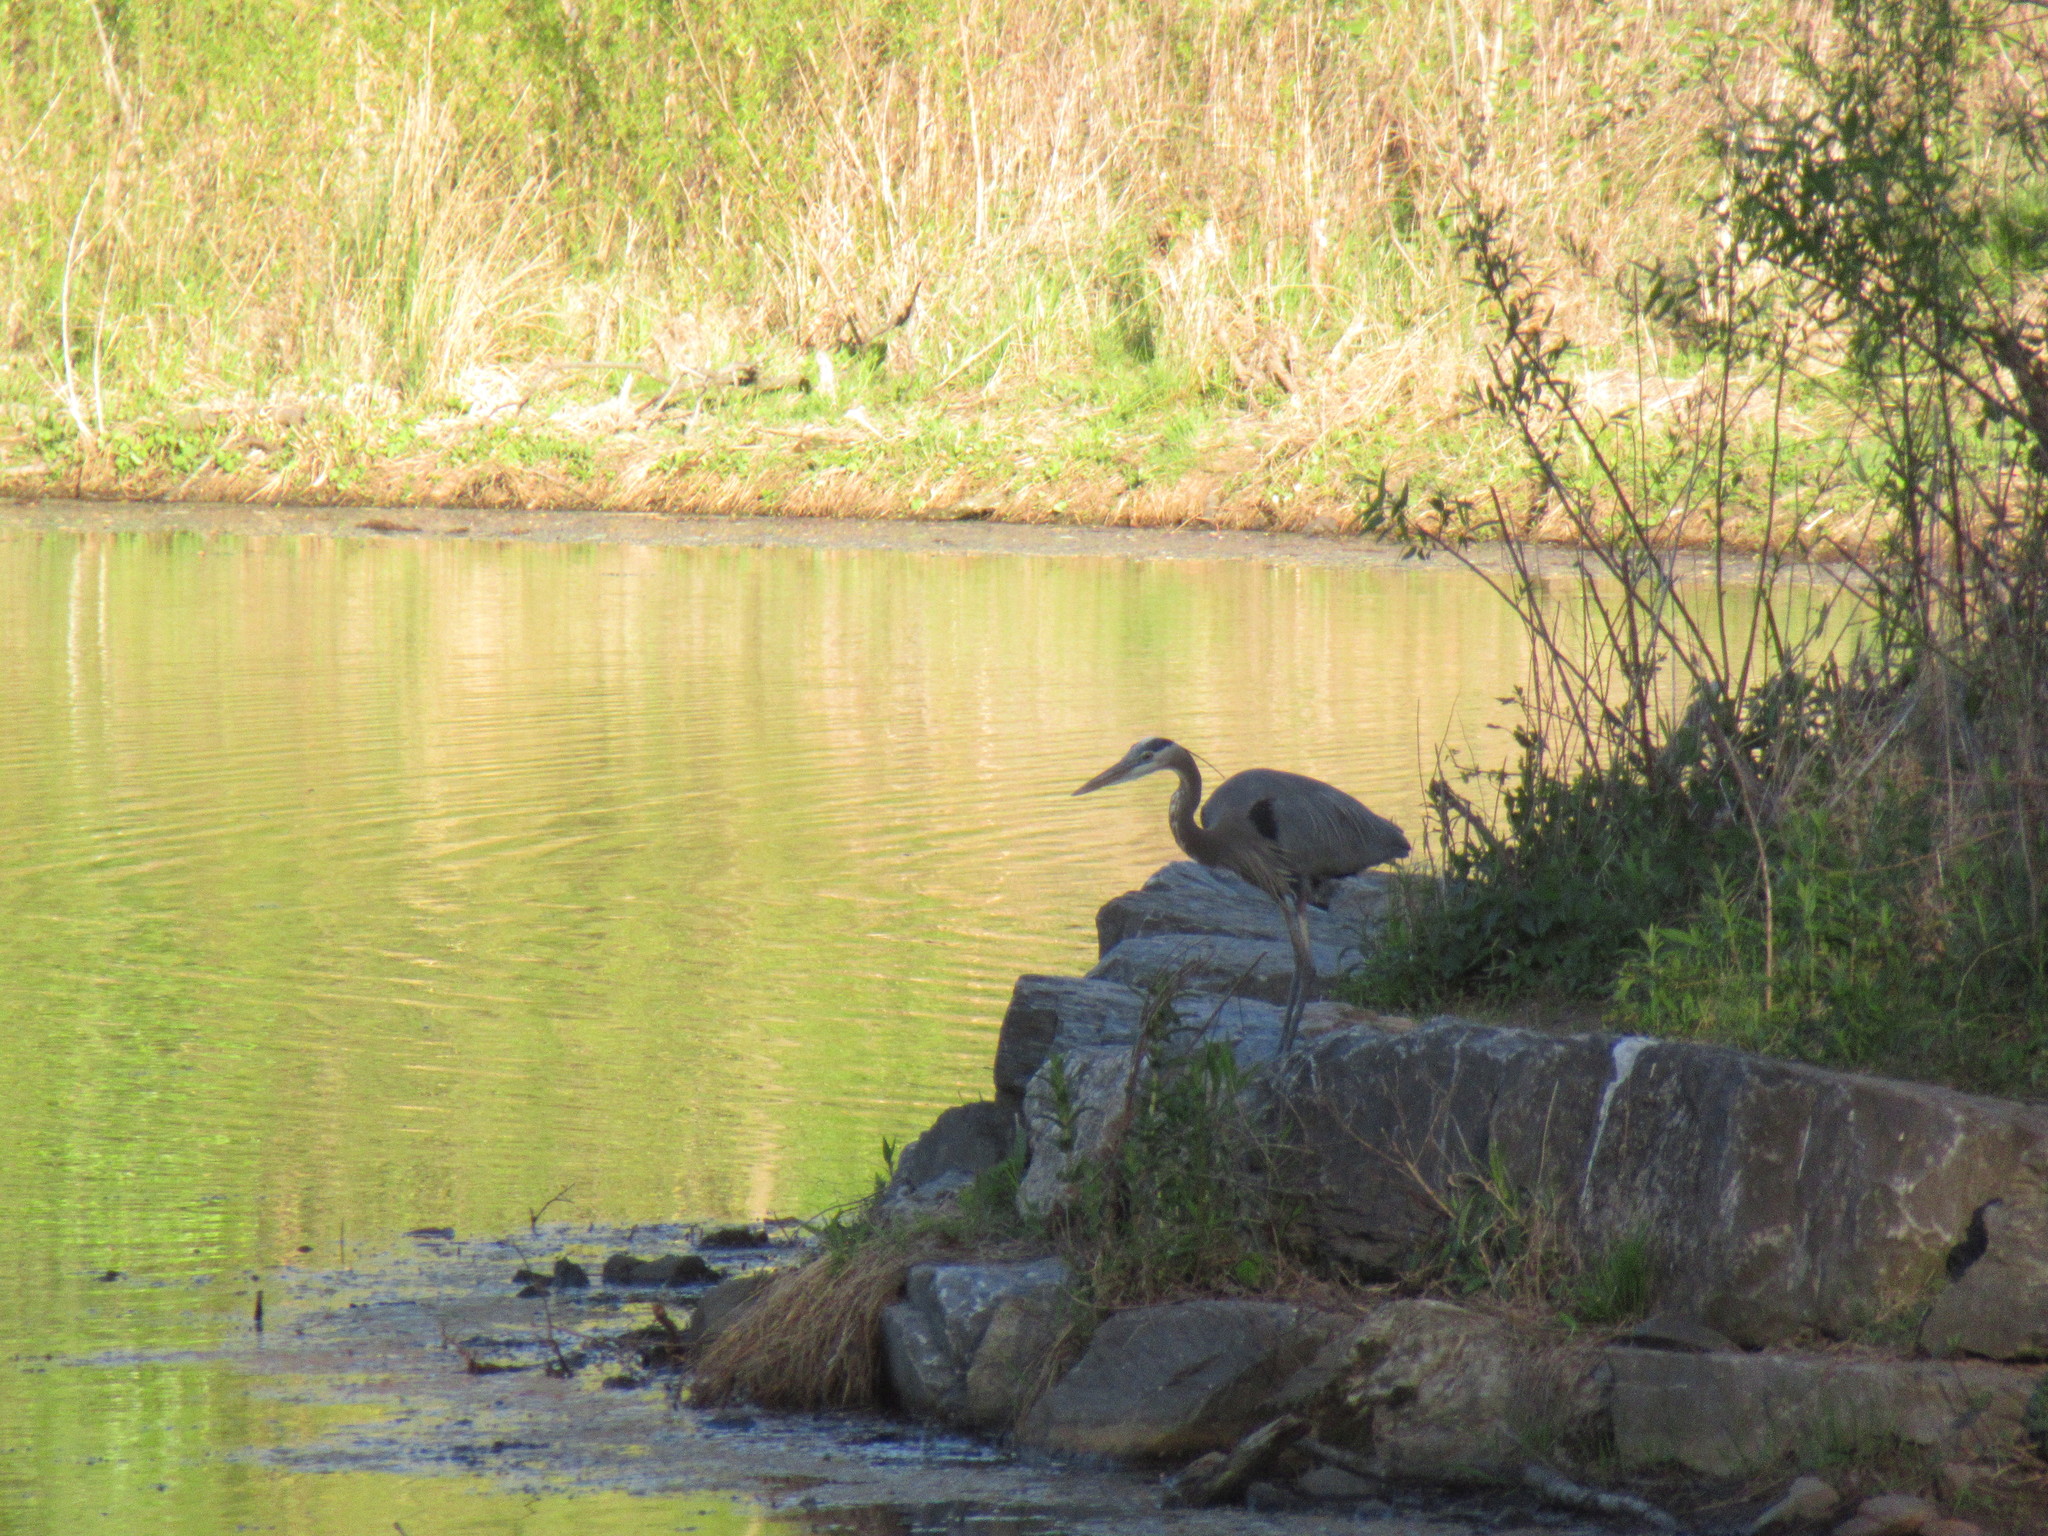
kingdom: Animalia
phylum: Chordata
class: Aves
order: Pelecaniformes
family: Ardeidae
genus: Ardea
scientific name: Ardea herodias
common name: Great blue heron
